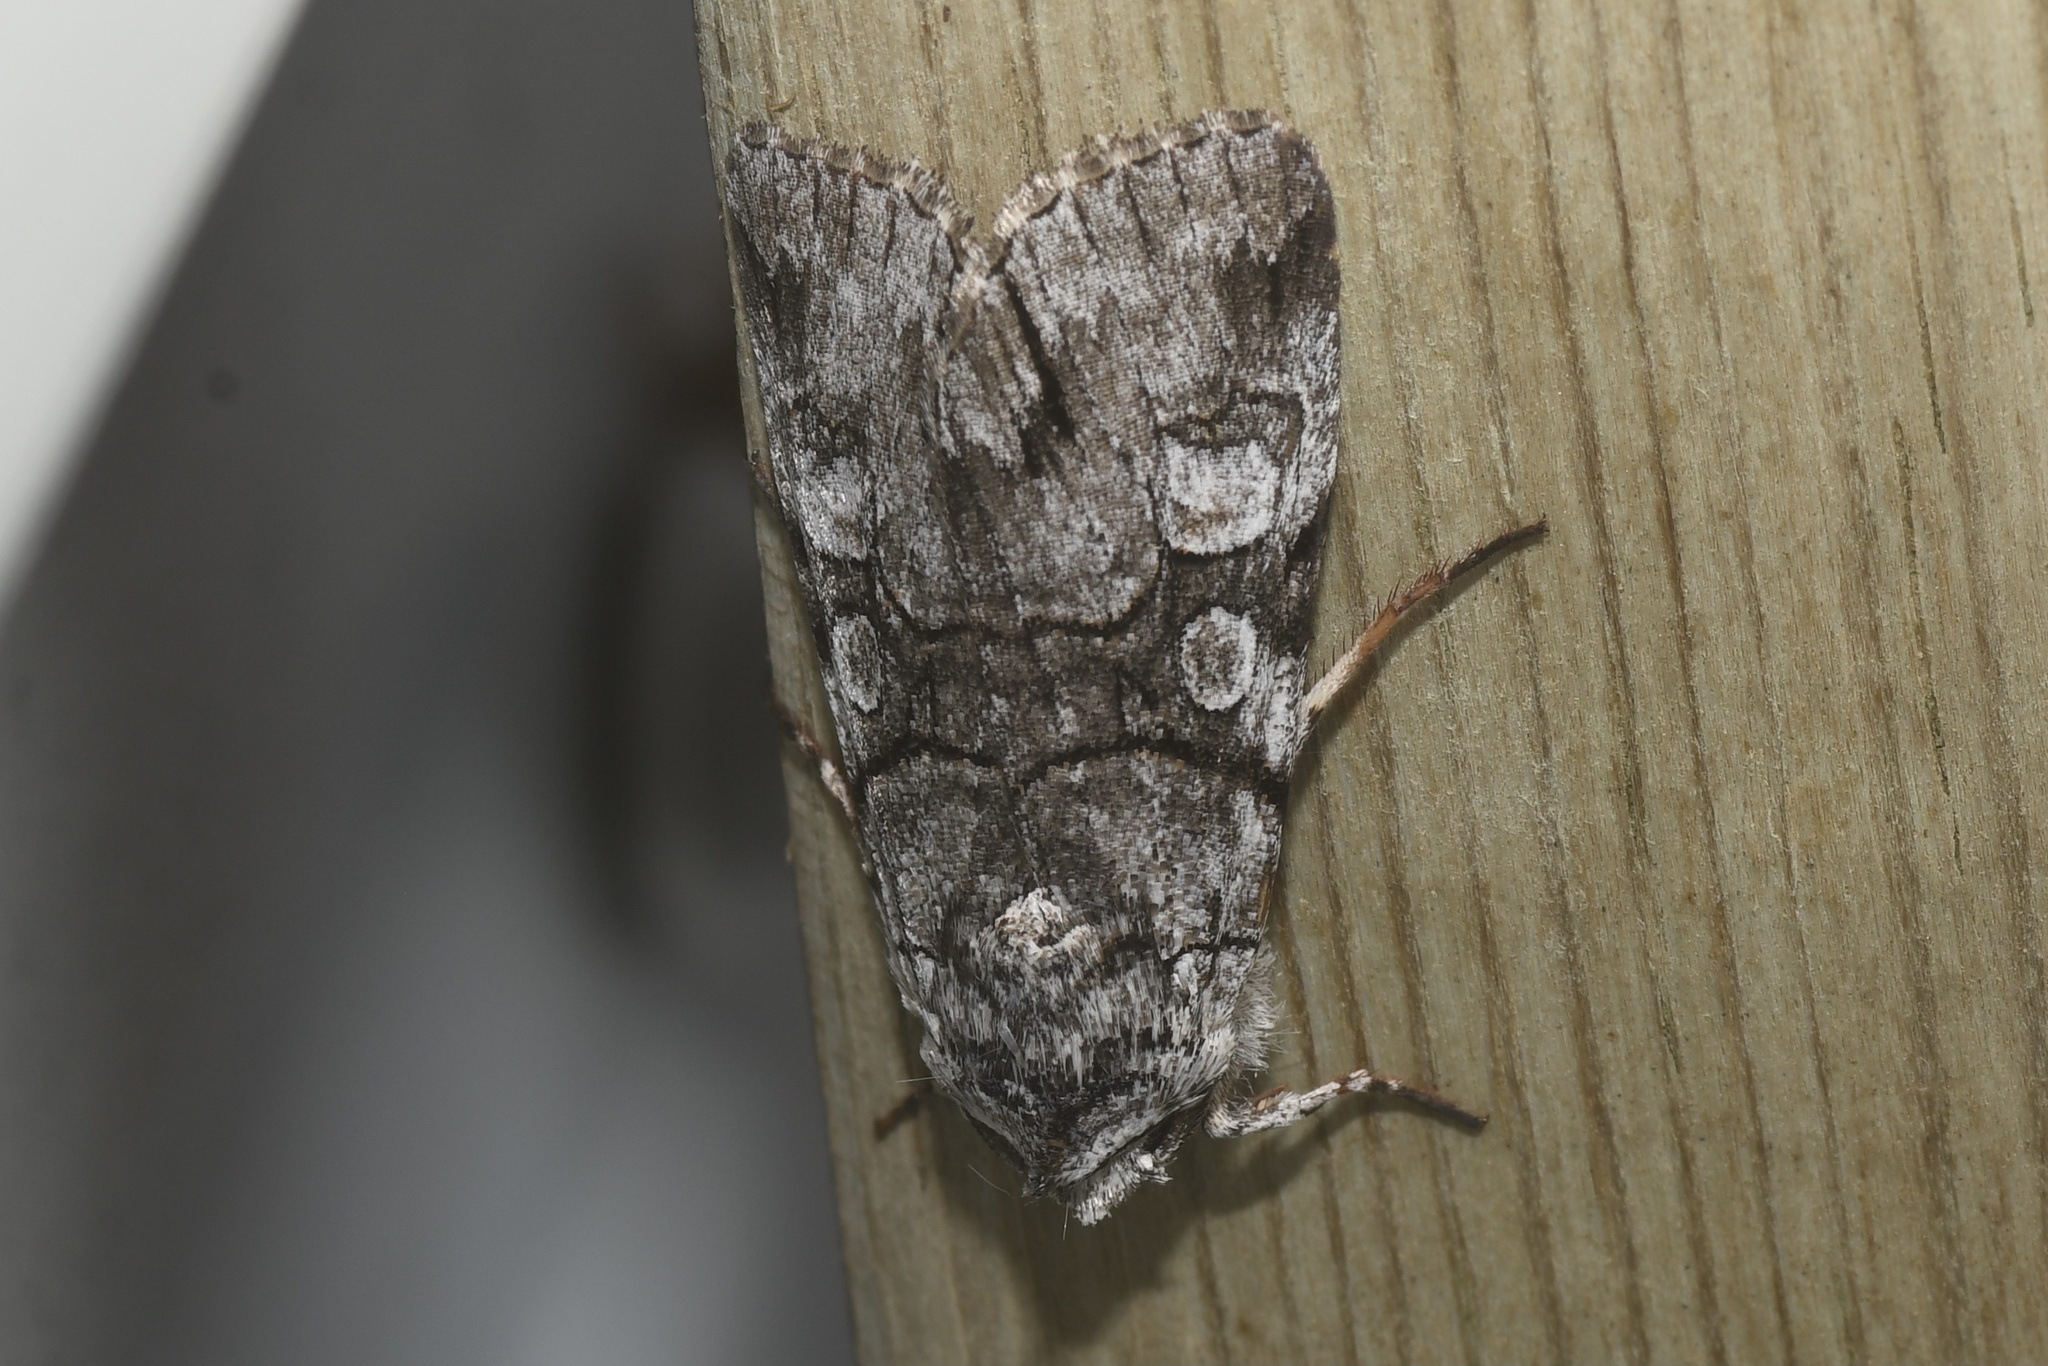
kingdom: Animalia
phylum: Arthropoda
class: Insecta
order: Lepidoptera
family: Noctuidae
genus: Sympistis
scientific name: Sympistis chionanthi
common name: Fringe-tree sallow
